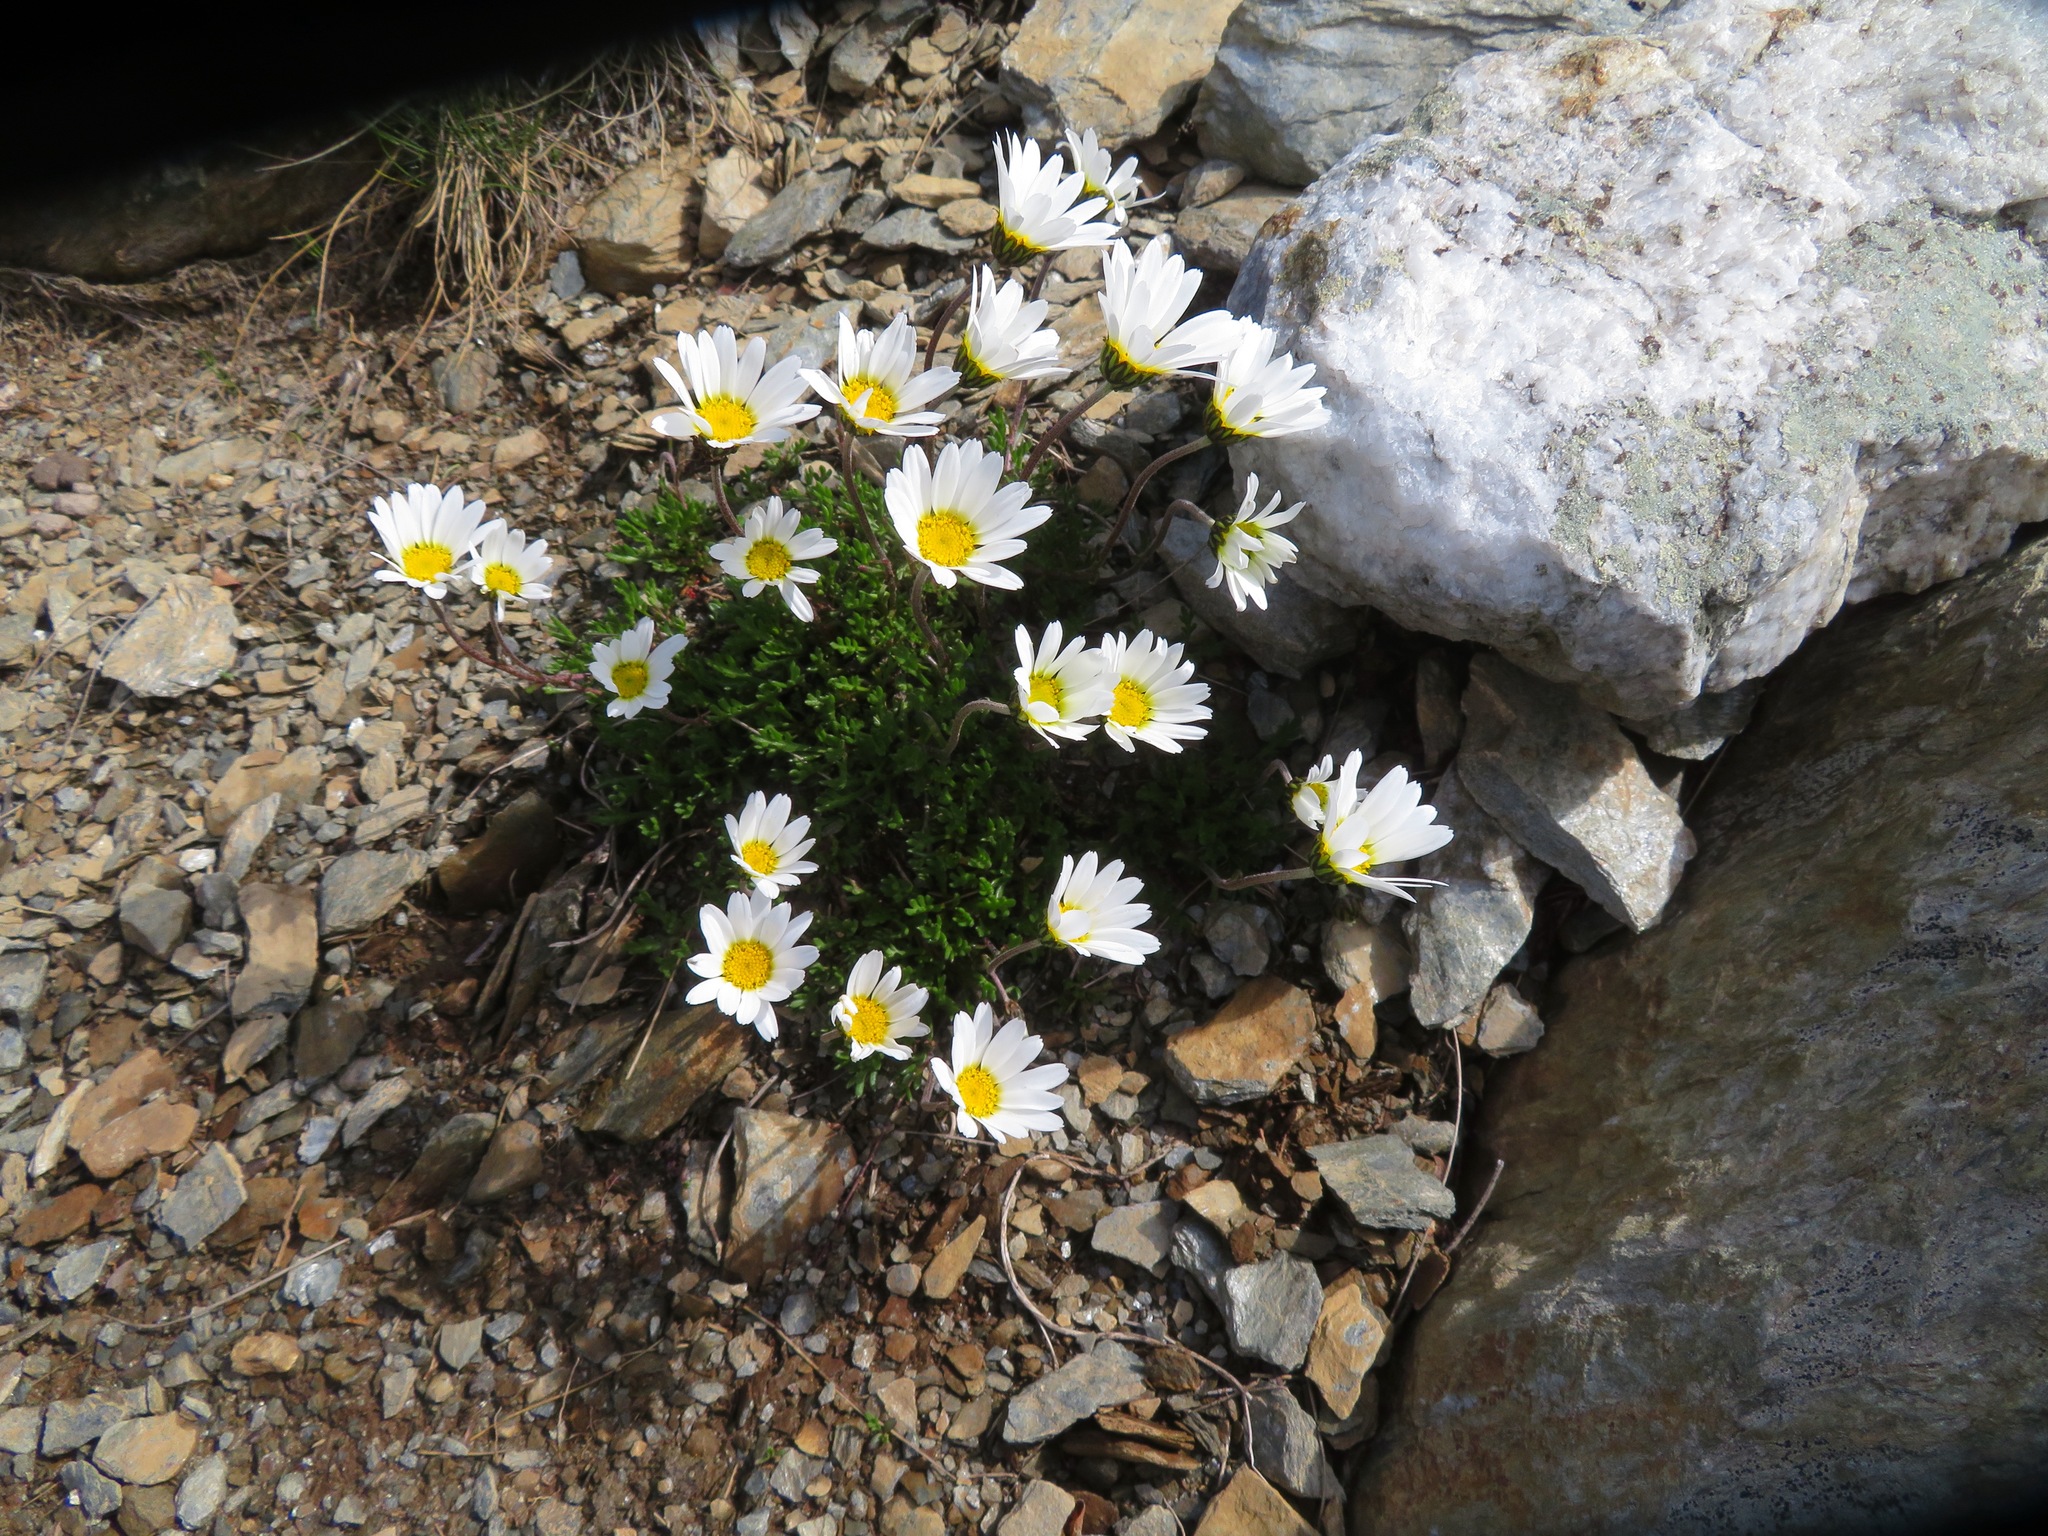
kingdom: Plantae
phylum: Tracheophyta
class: Magnoliopsida
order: Asterales
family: Asteraceae
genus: Leucanthemopsis
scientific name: Leucanthemopsis alpina
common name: Alpine moon daisy
